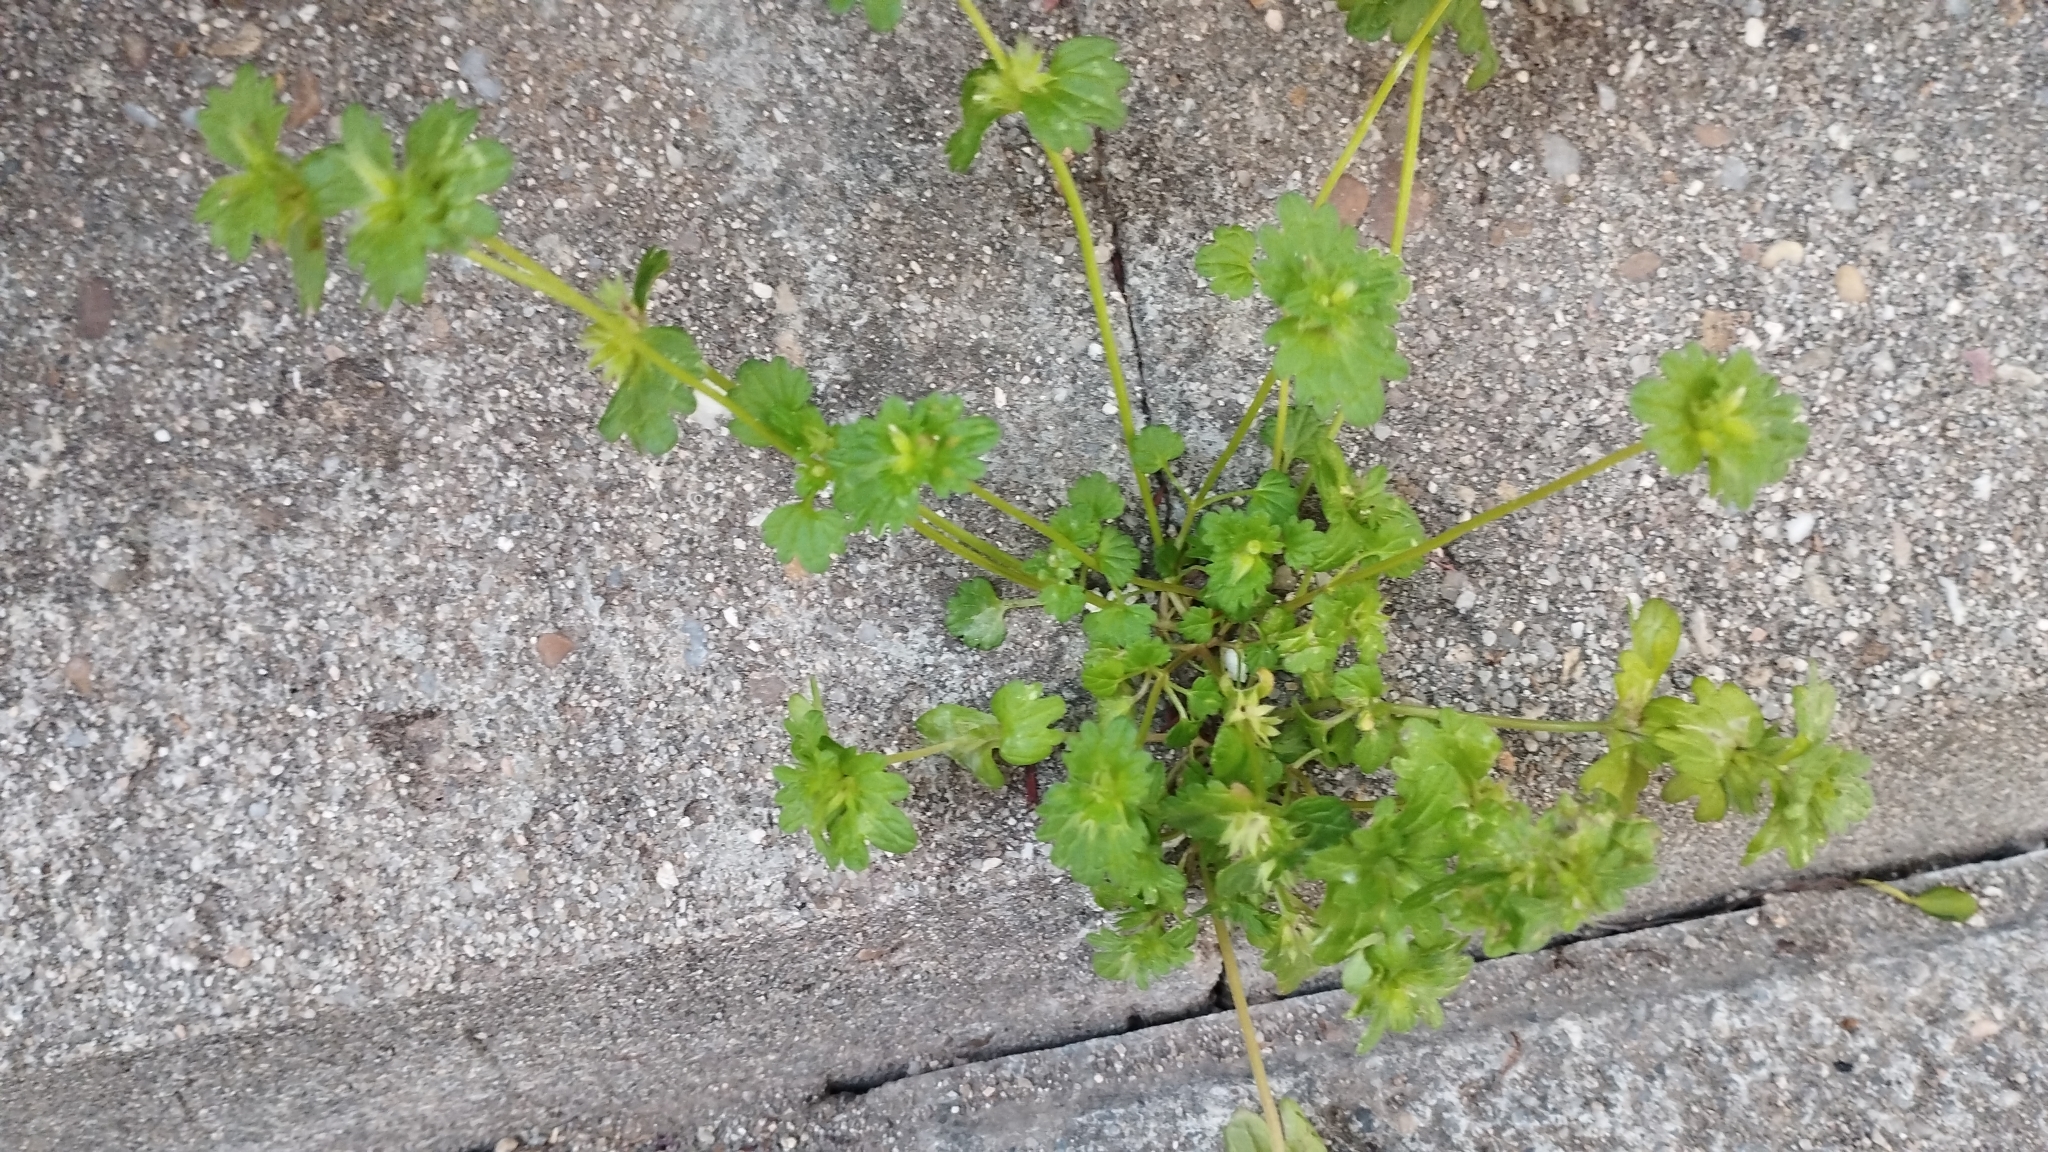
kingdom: Plantae
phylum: Tracheophyta
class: Magnoliopsida
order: Lamiales
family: Lamiaceae
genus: Lamium
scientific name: Lamium amplexicaule
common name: Henbit dead-nettle
